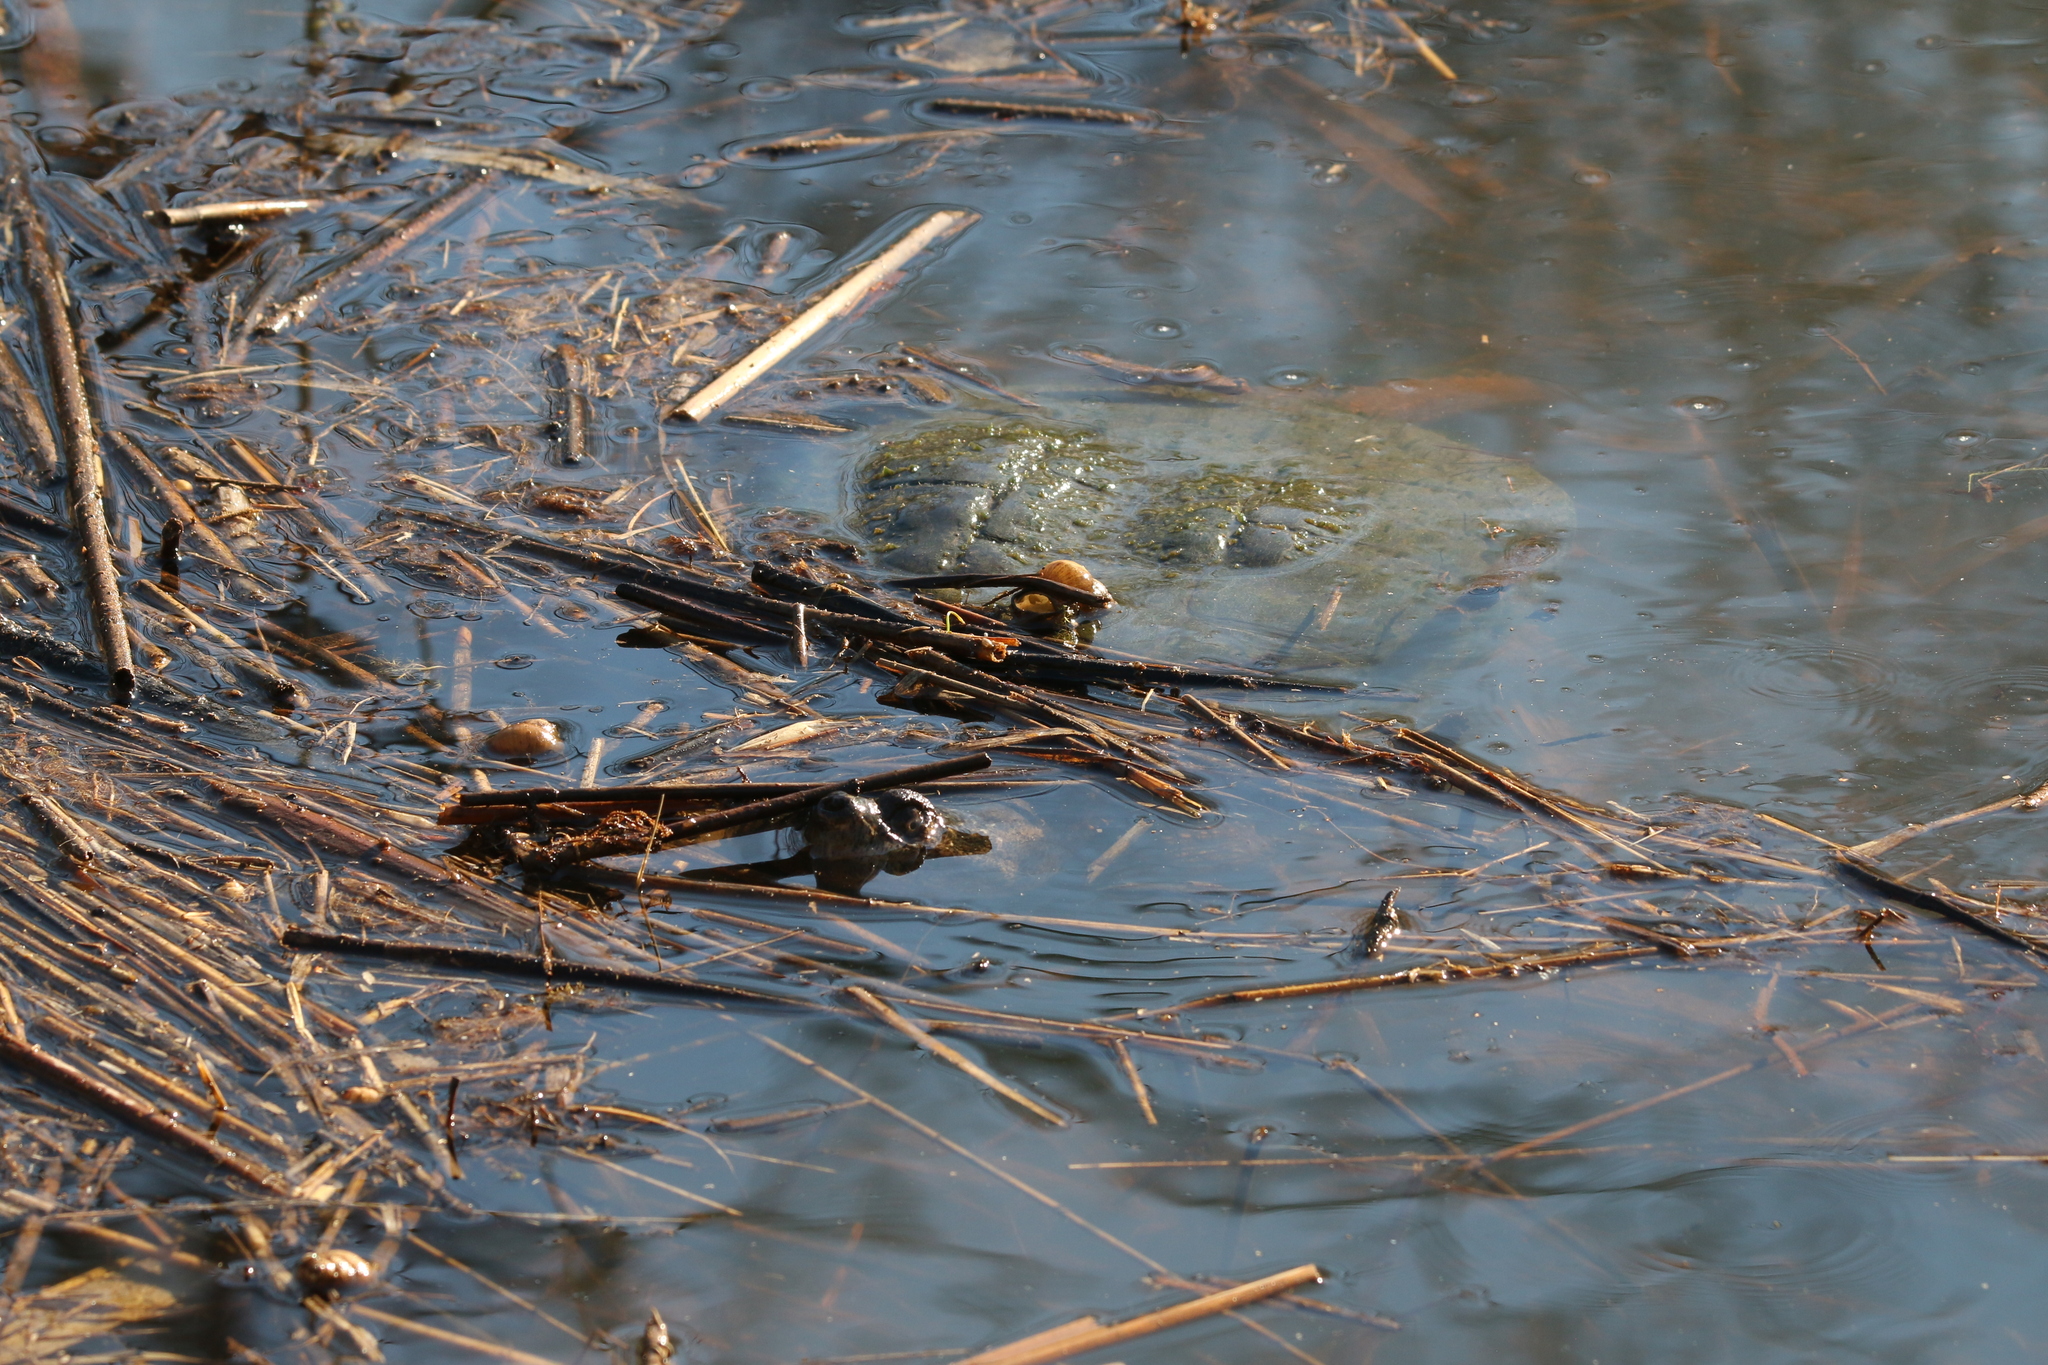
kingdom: Animalia
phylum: Chordata
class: Testudines
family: Chelydridae
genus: Chelydra
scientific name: Chelydra serpentina
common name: Common snapping turtle
